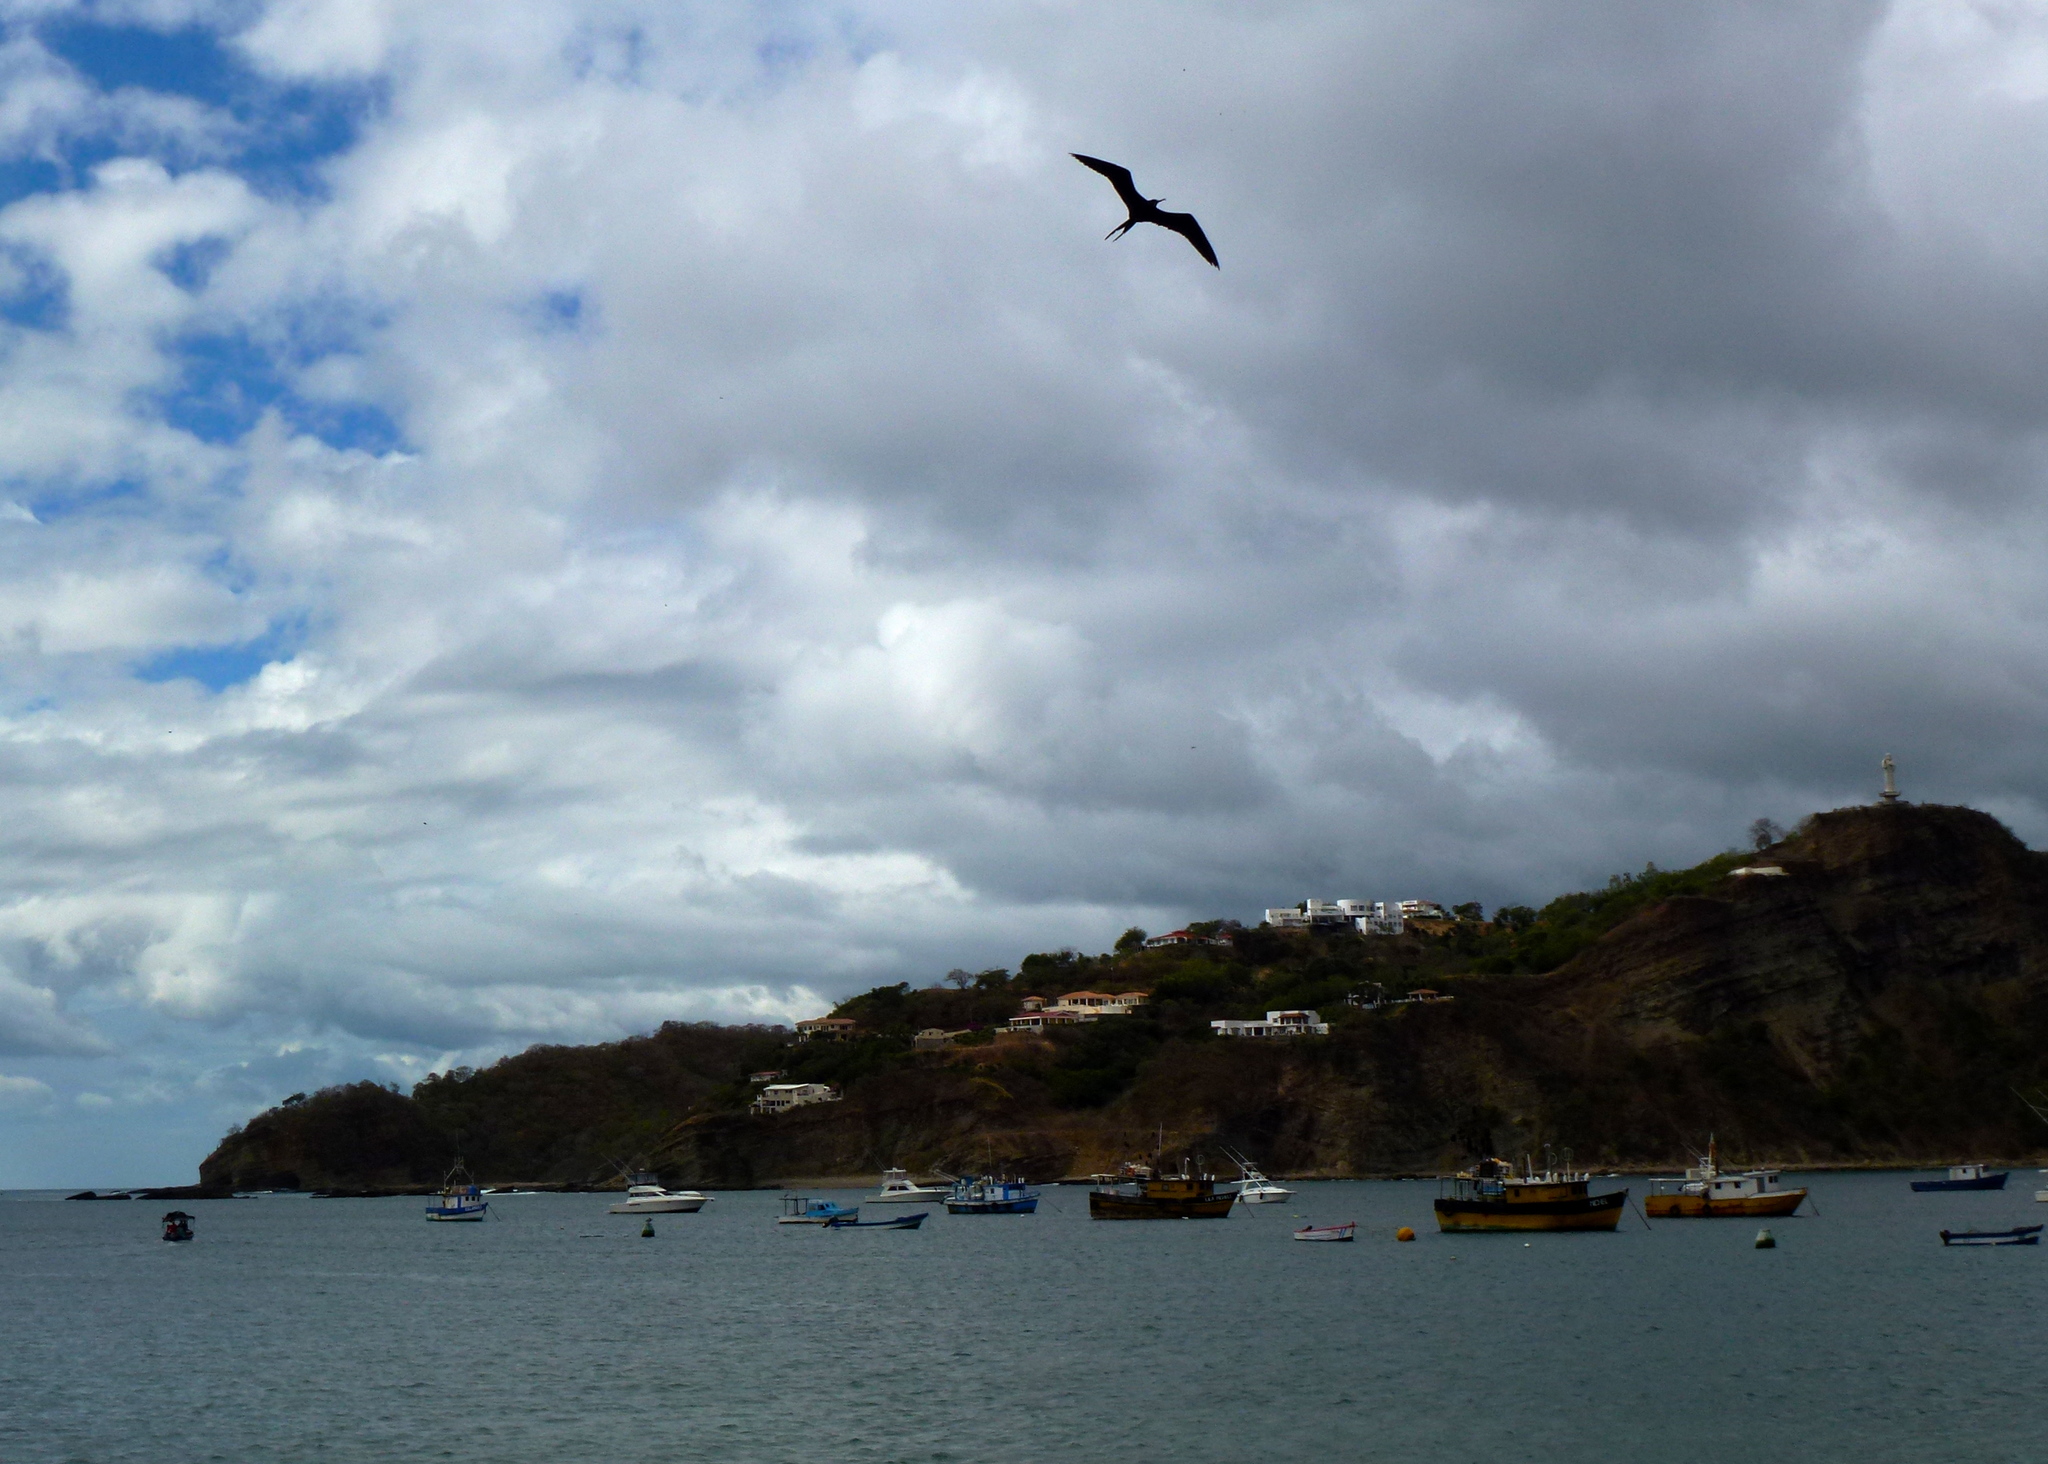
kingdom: Animalia
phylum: Chordata
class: Aves
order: Suliformes
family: Fregatidae
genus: Fregata
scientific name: Fregata magnificens
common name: Magnificent frigatebird
